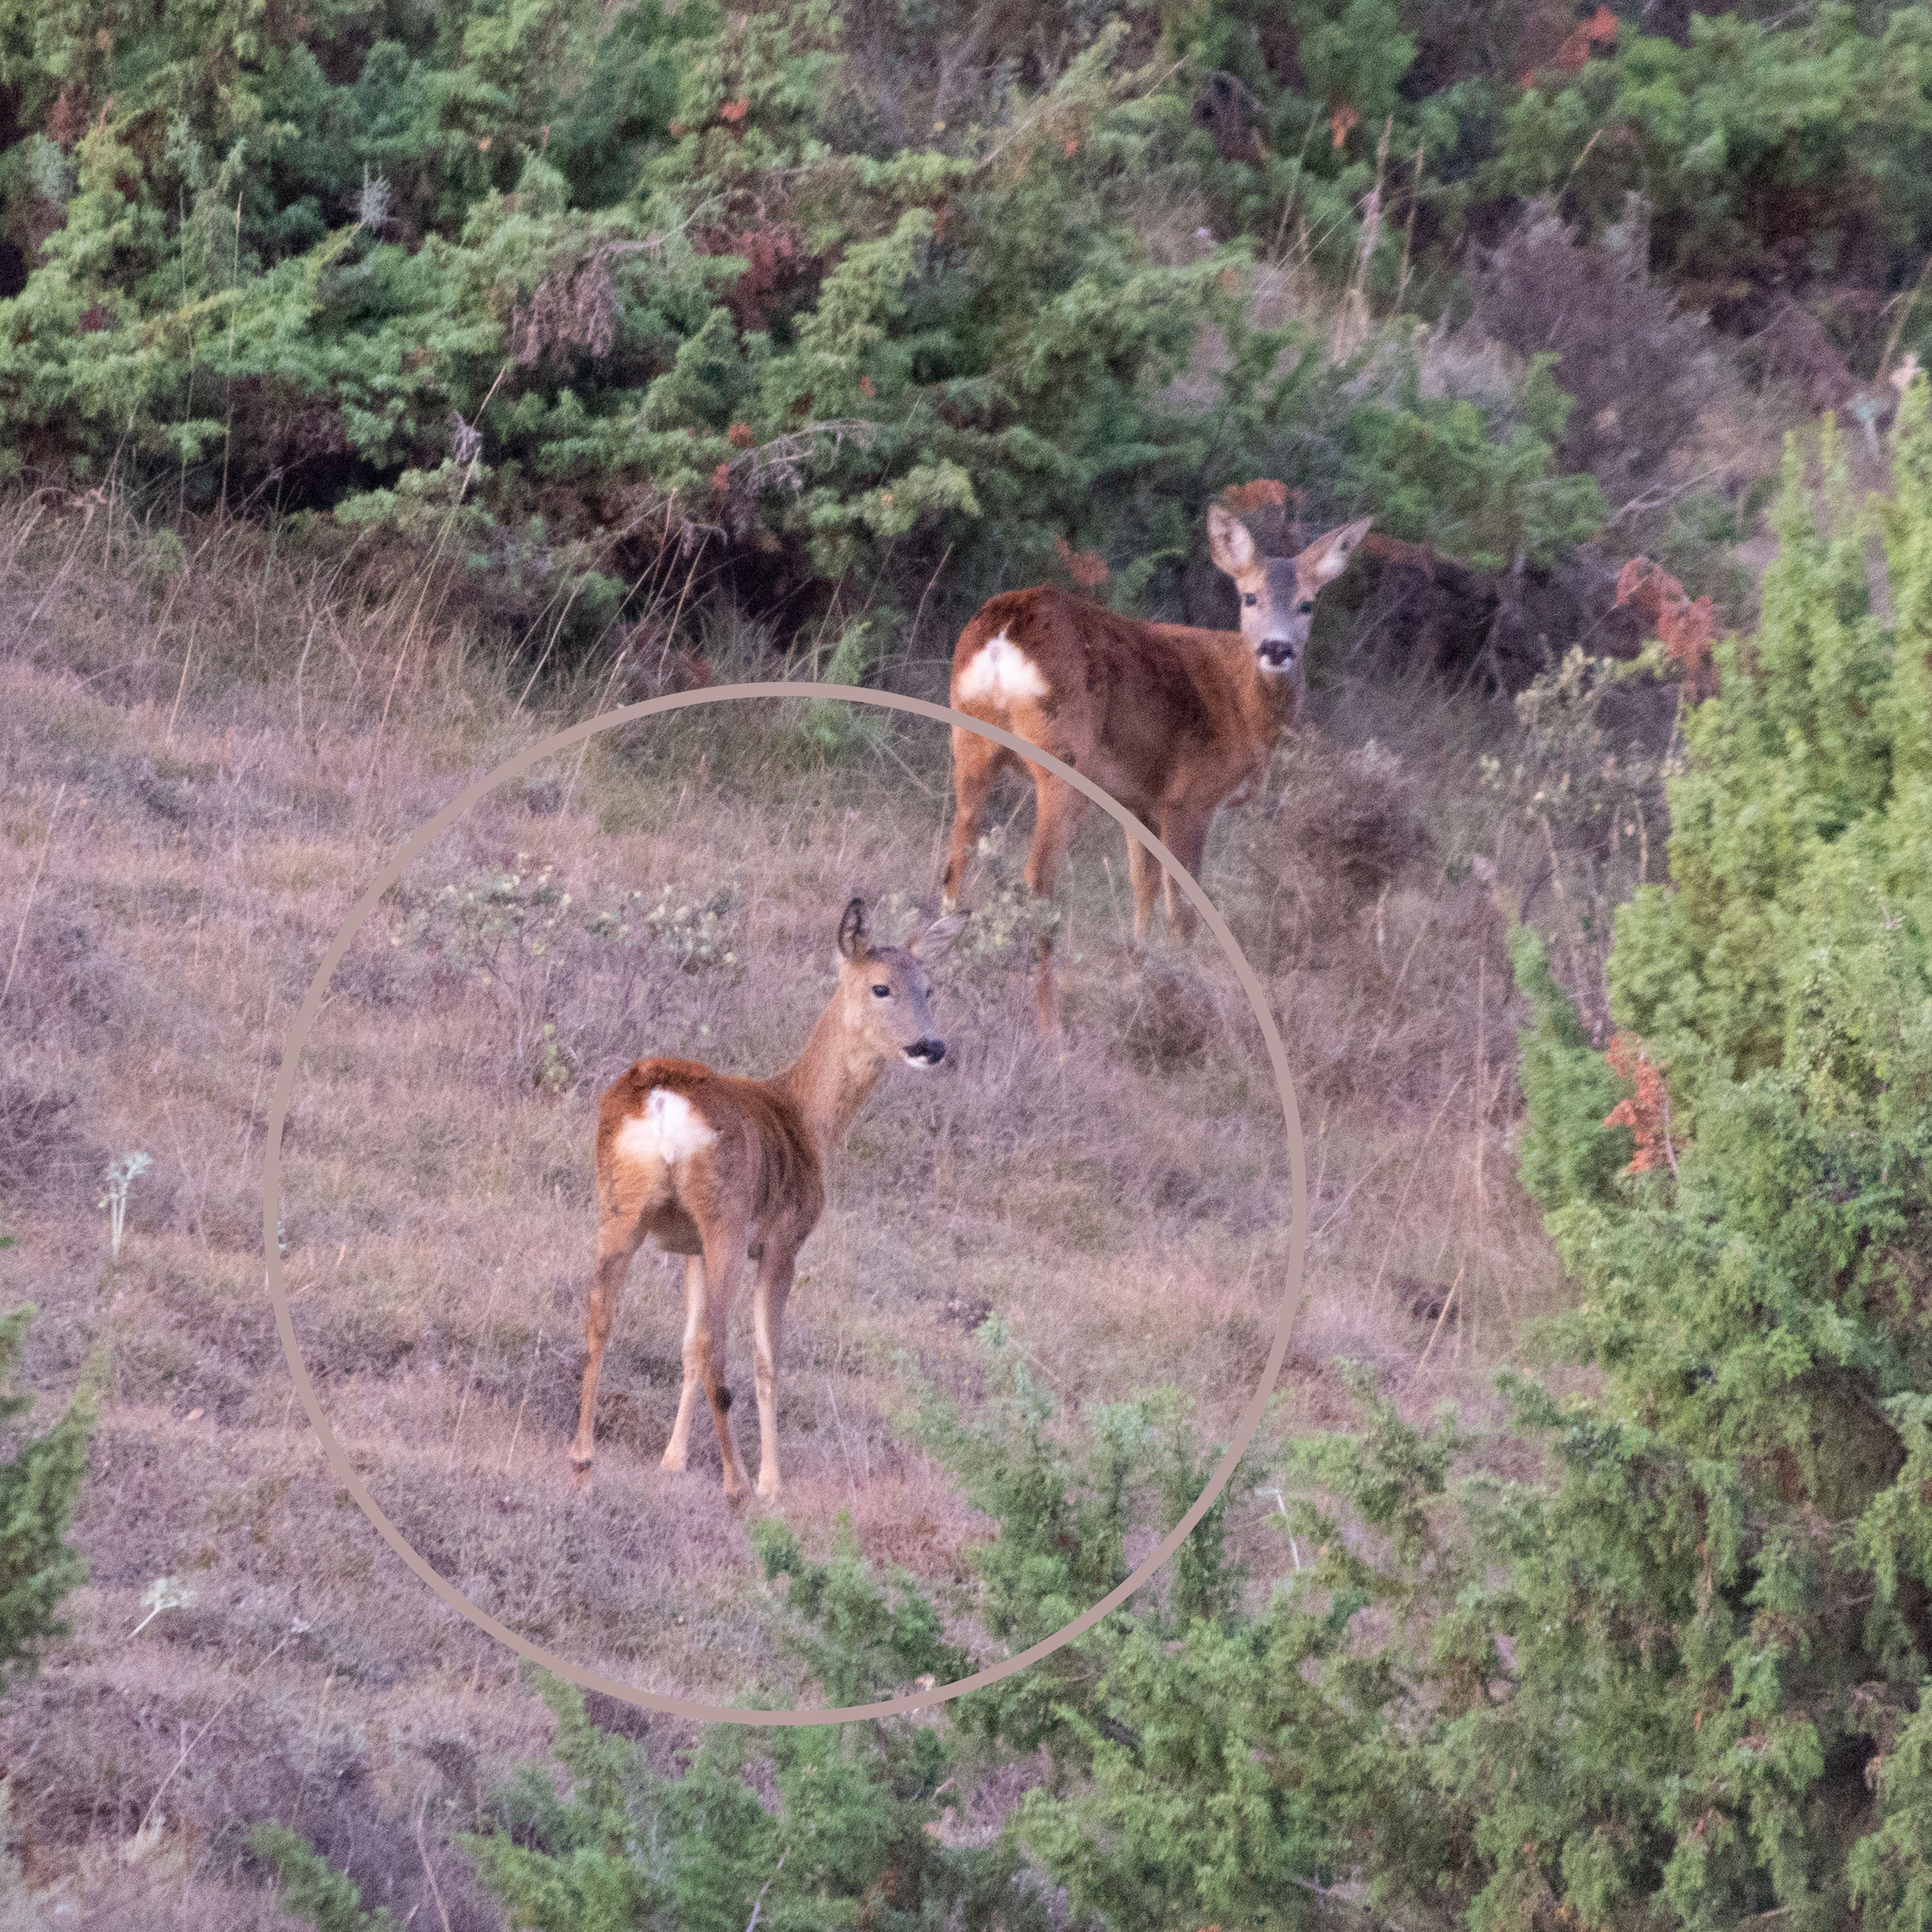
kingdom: Animalia
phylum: Chordata
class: Mammalia
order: Artiodactyla
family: Cervidae
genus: Capreolus
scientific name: Capreolus capreolus
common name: Western roe deer
